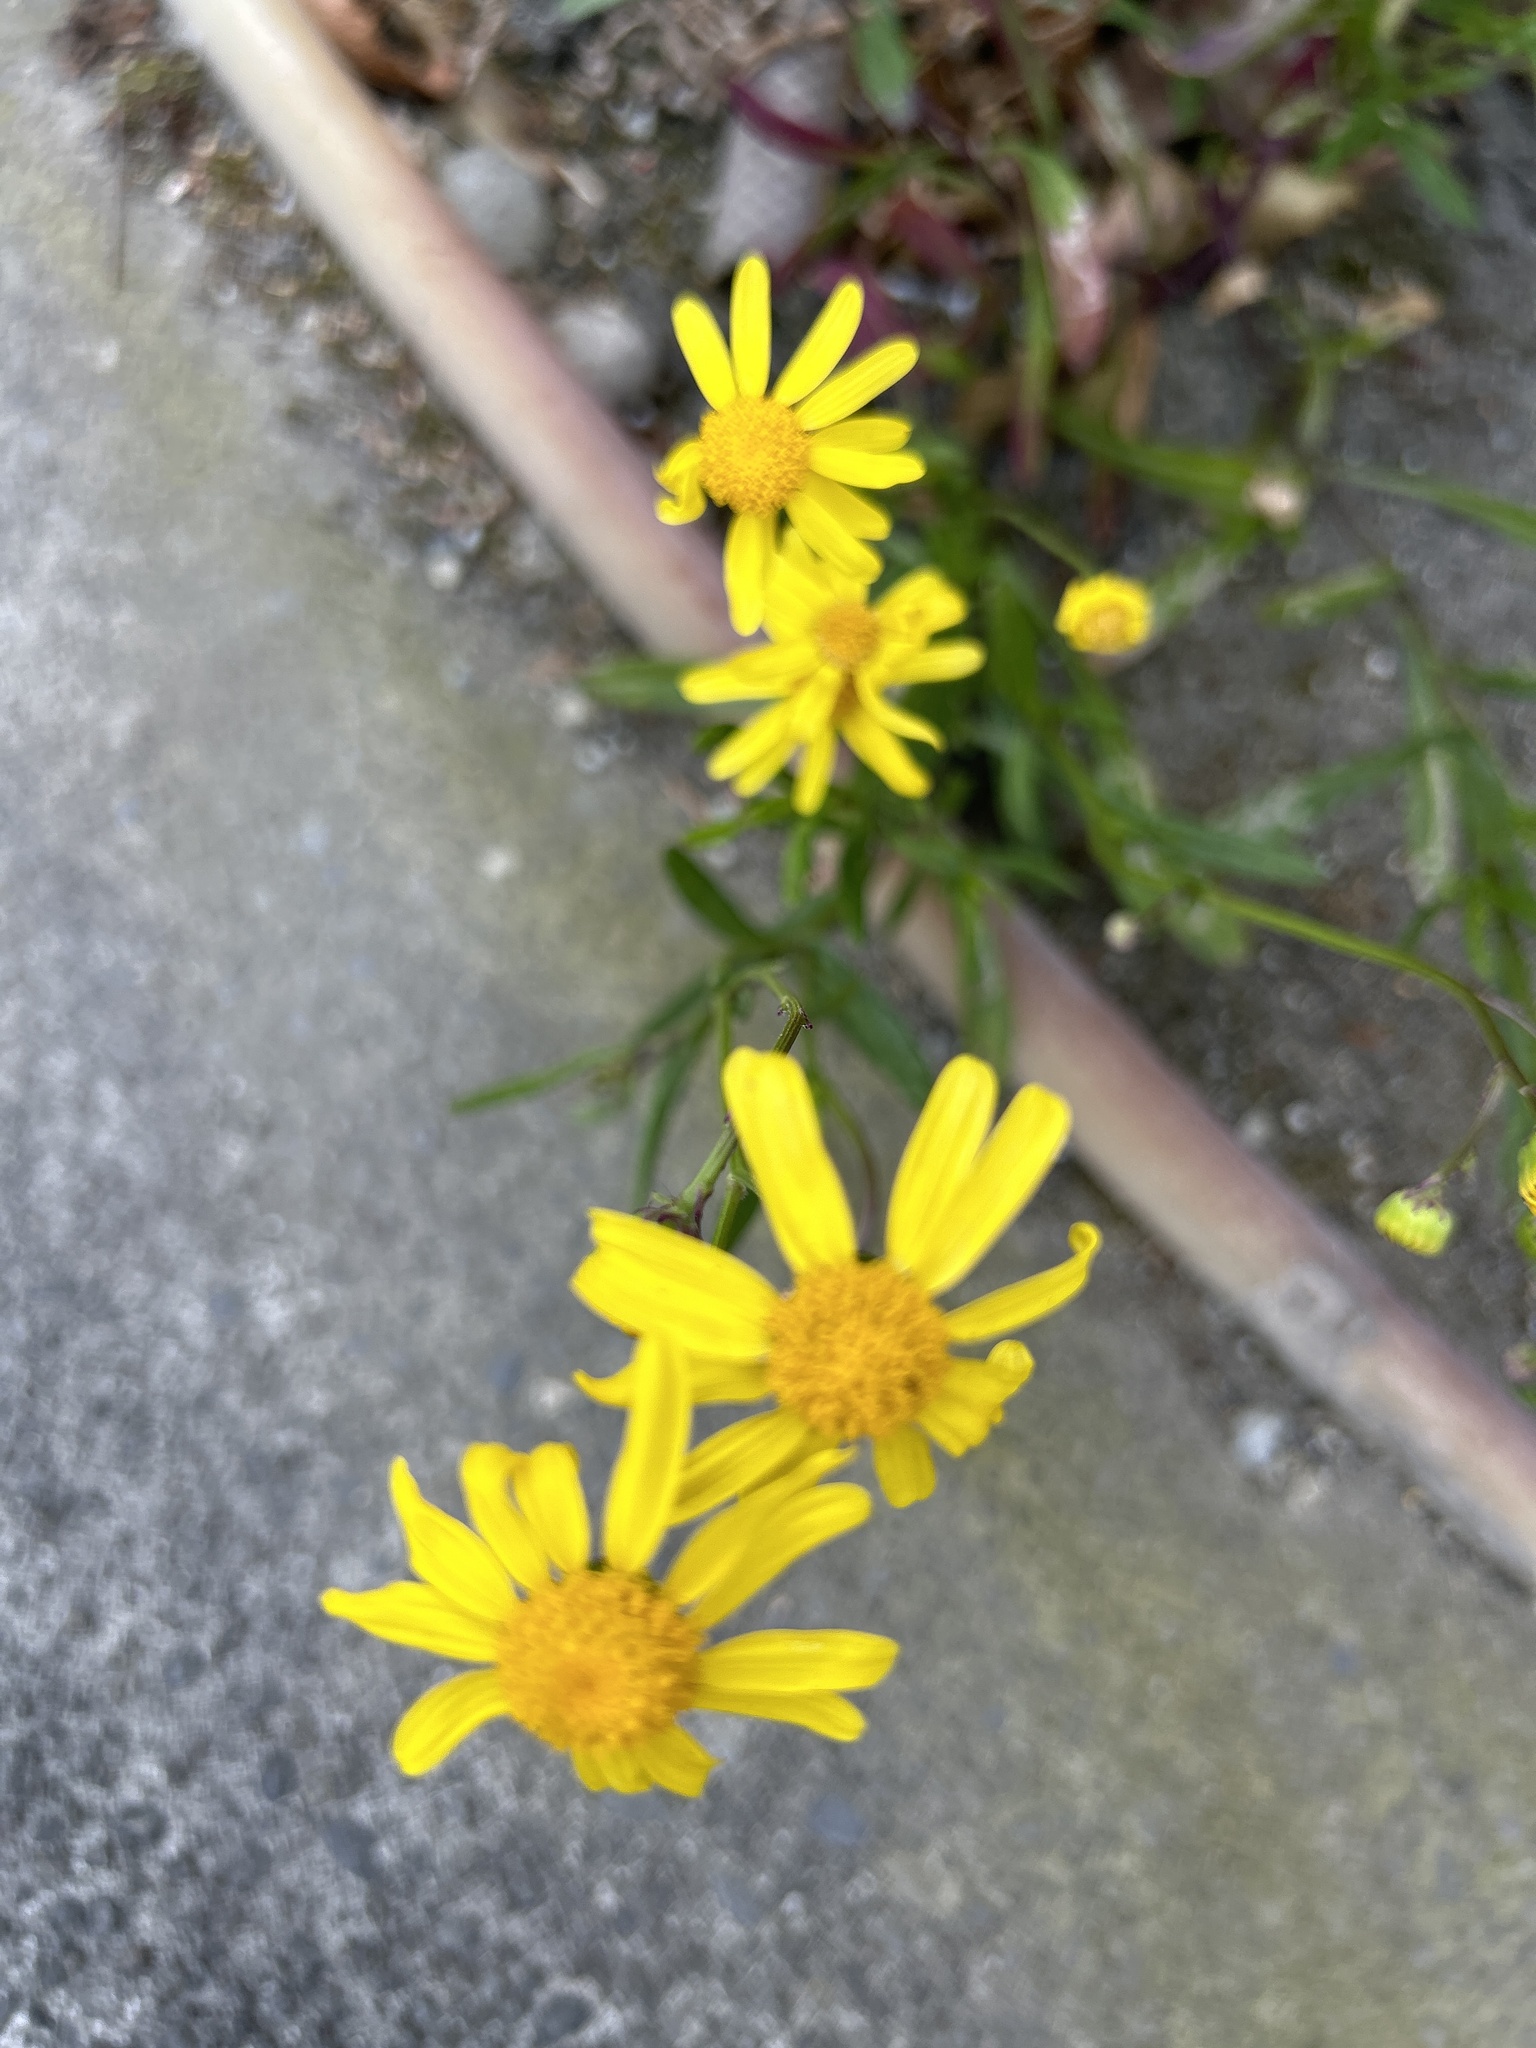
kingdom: Plantae
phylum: Tracheophyta
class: Magnoliopsida
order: Asterales
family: Asteraceae
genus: Senecio
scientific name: Senecio skirrhodon
